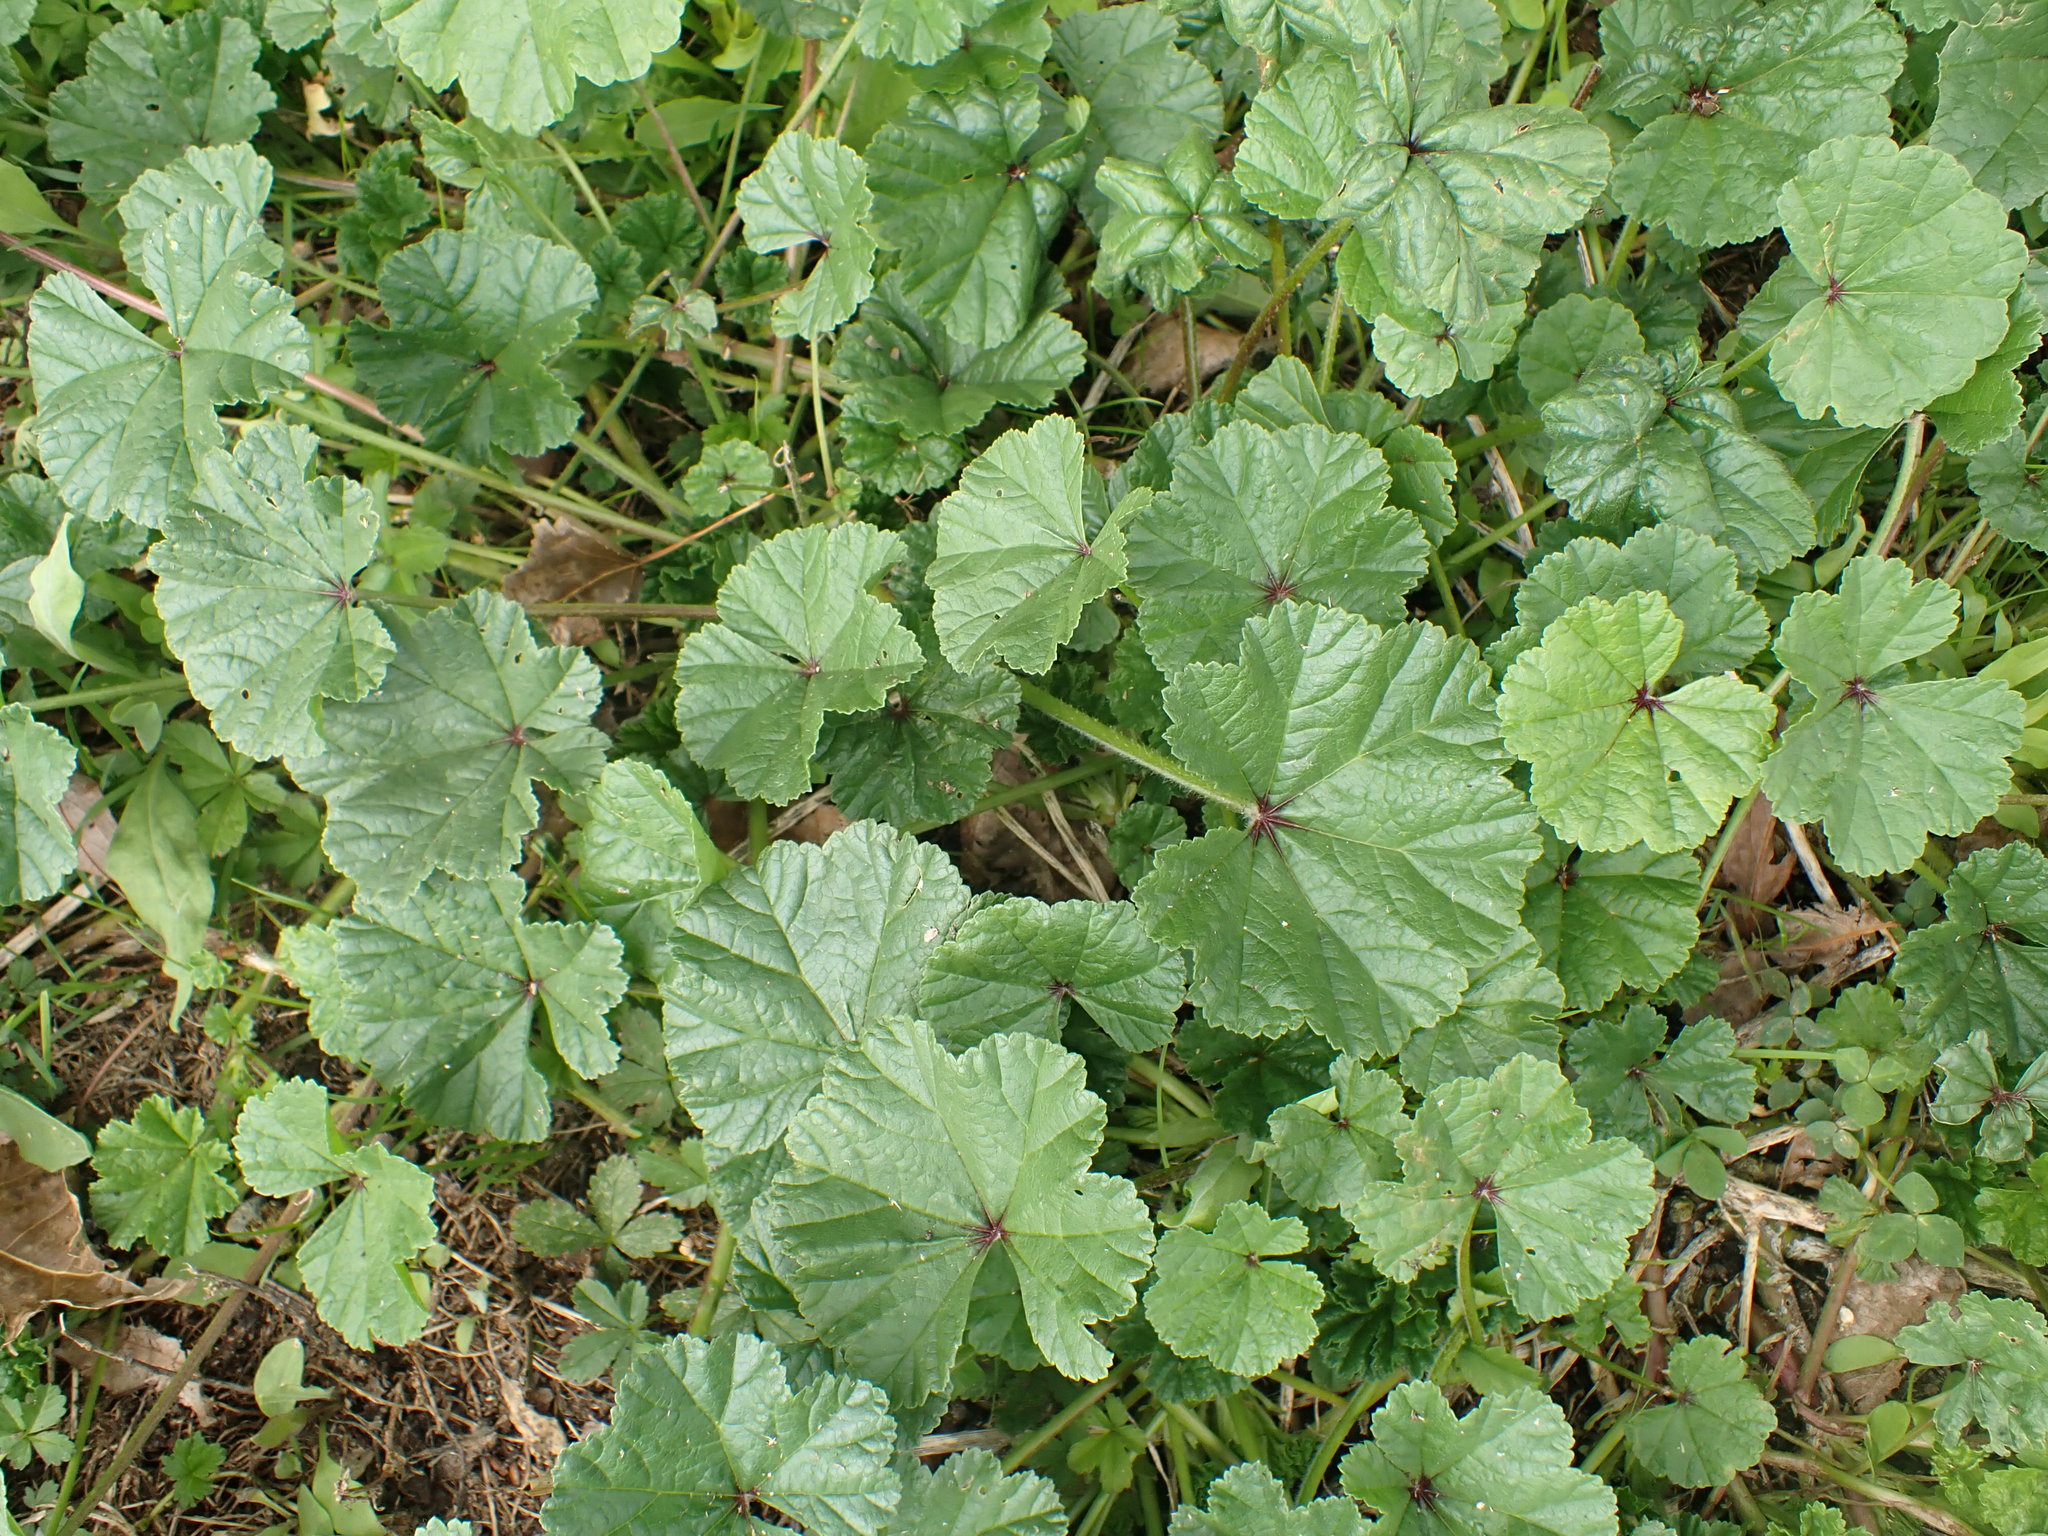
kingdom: Plantae
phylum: Tracheophyta
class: Magnoliopsida
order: Malvales
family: Malvaceae
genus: Malva
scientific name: Malva sylvestris
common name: Common mallow
